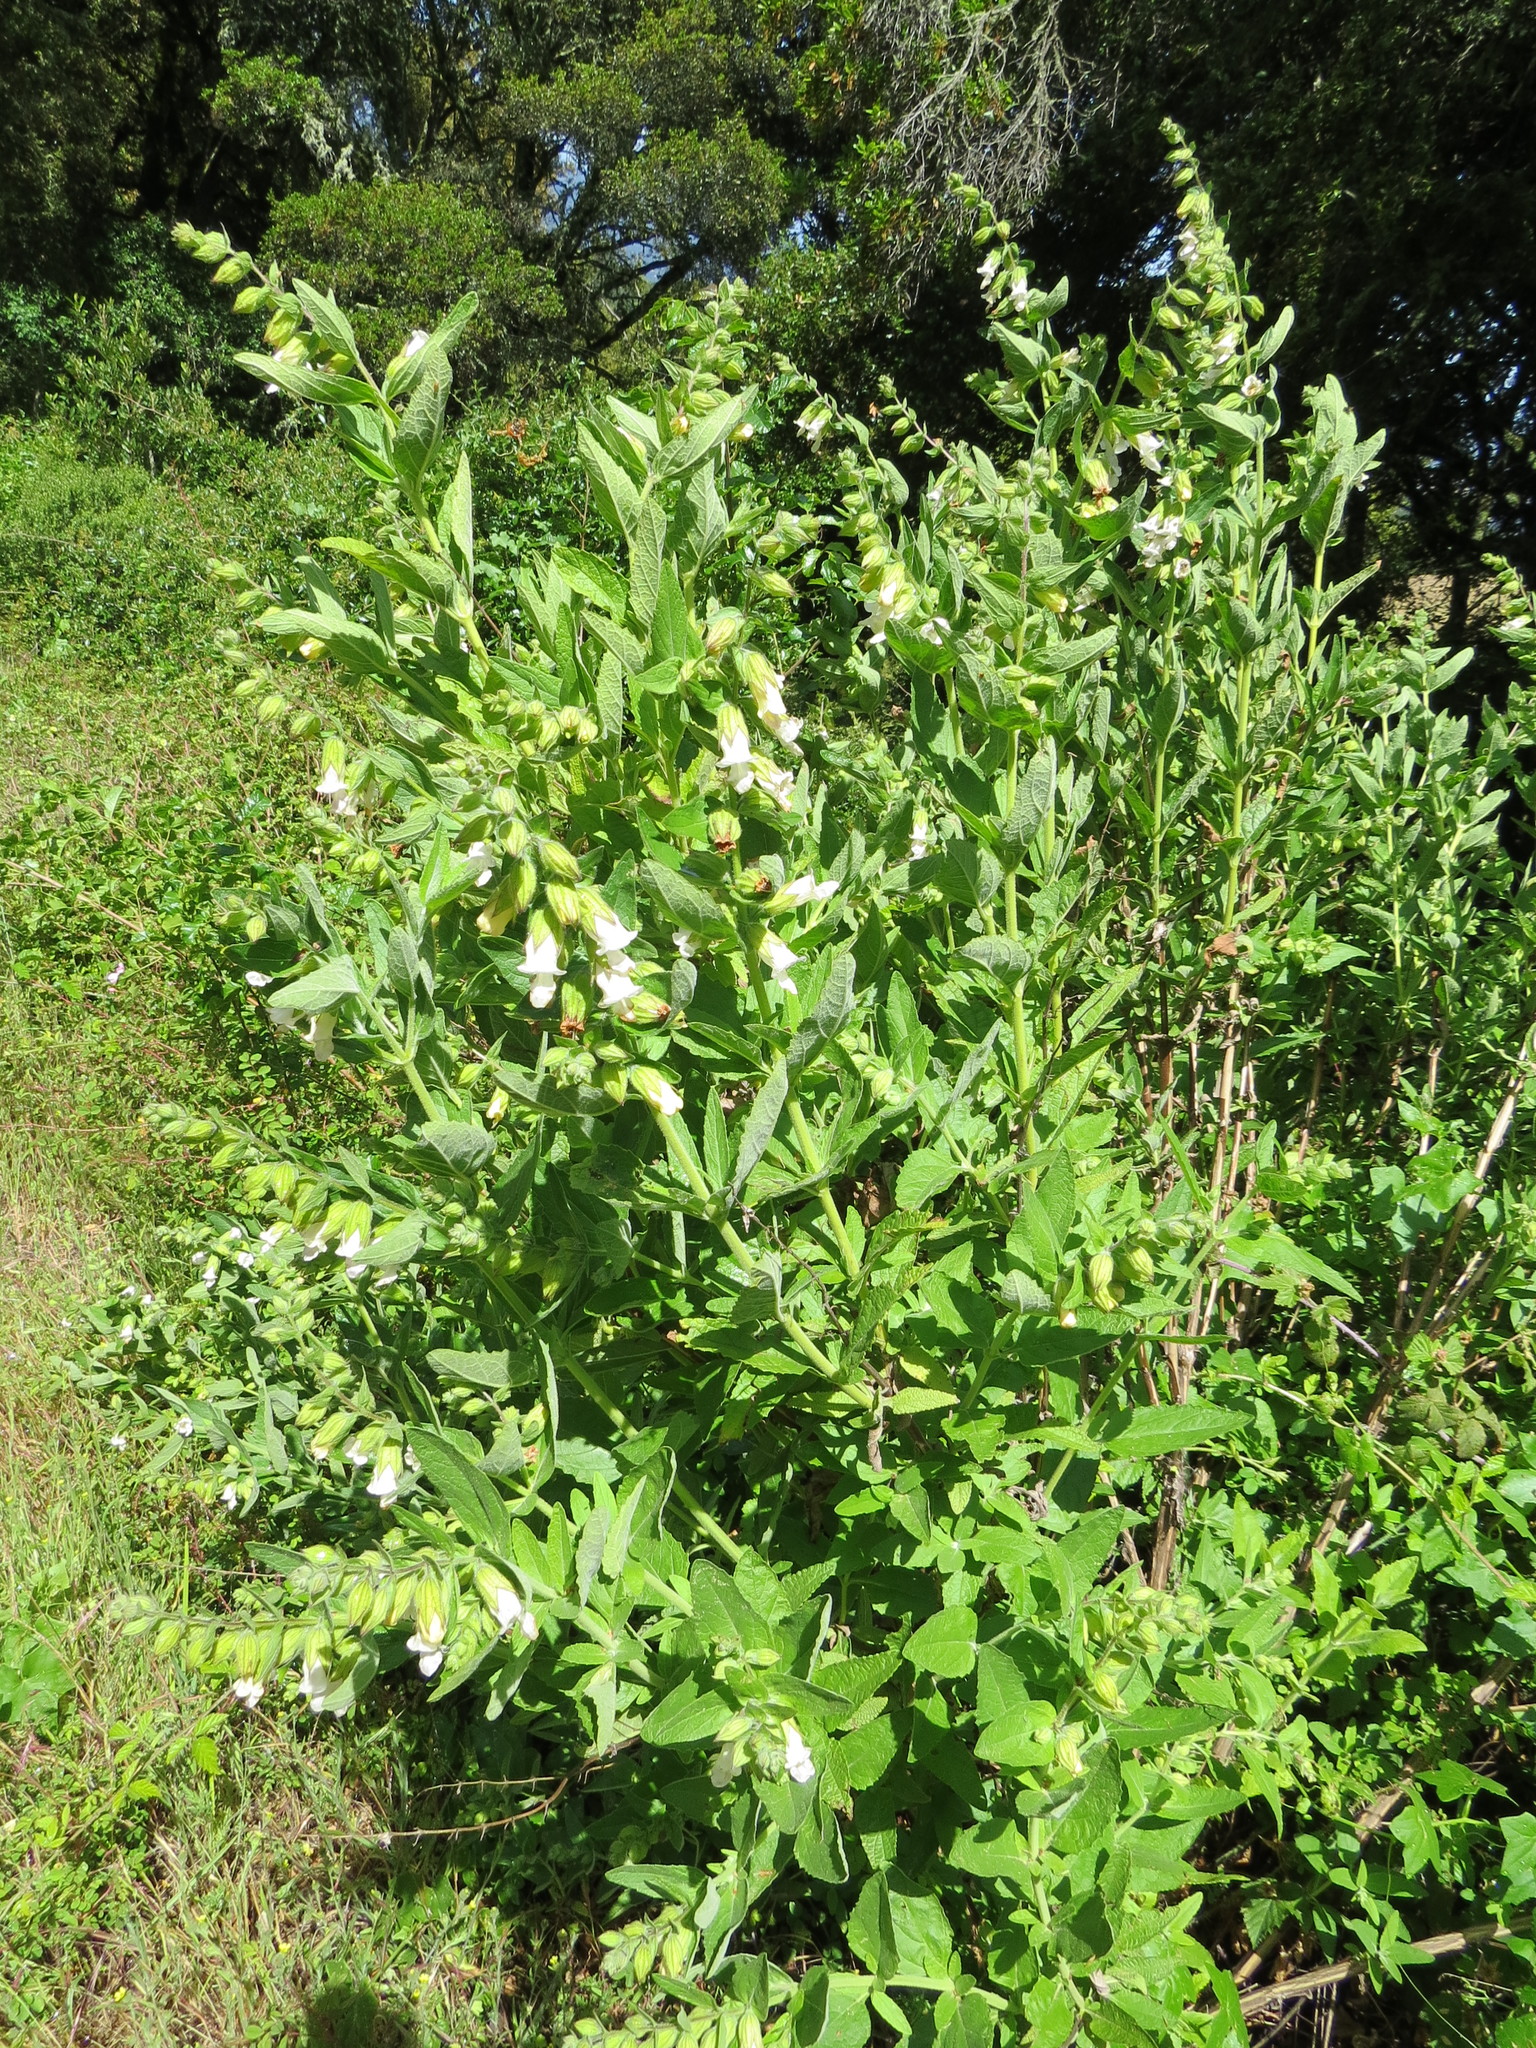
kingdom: Plantae
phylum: Tracheophyta
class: Magnoliopsida
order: Lamiales
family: Lamiaceae
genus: Lepechinia
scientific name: Lepechinia calycina
